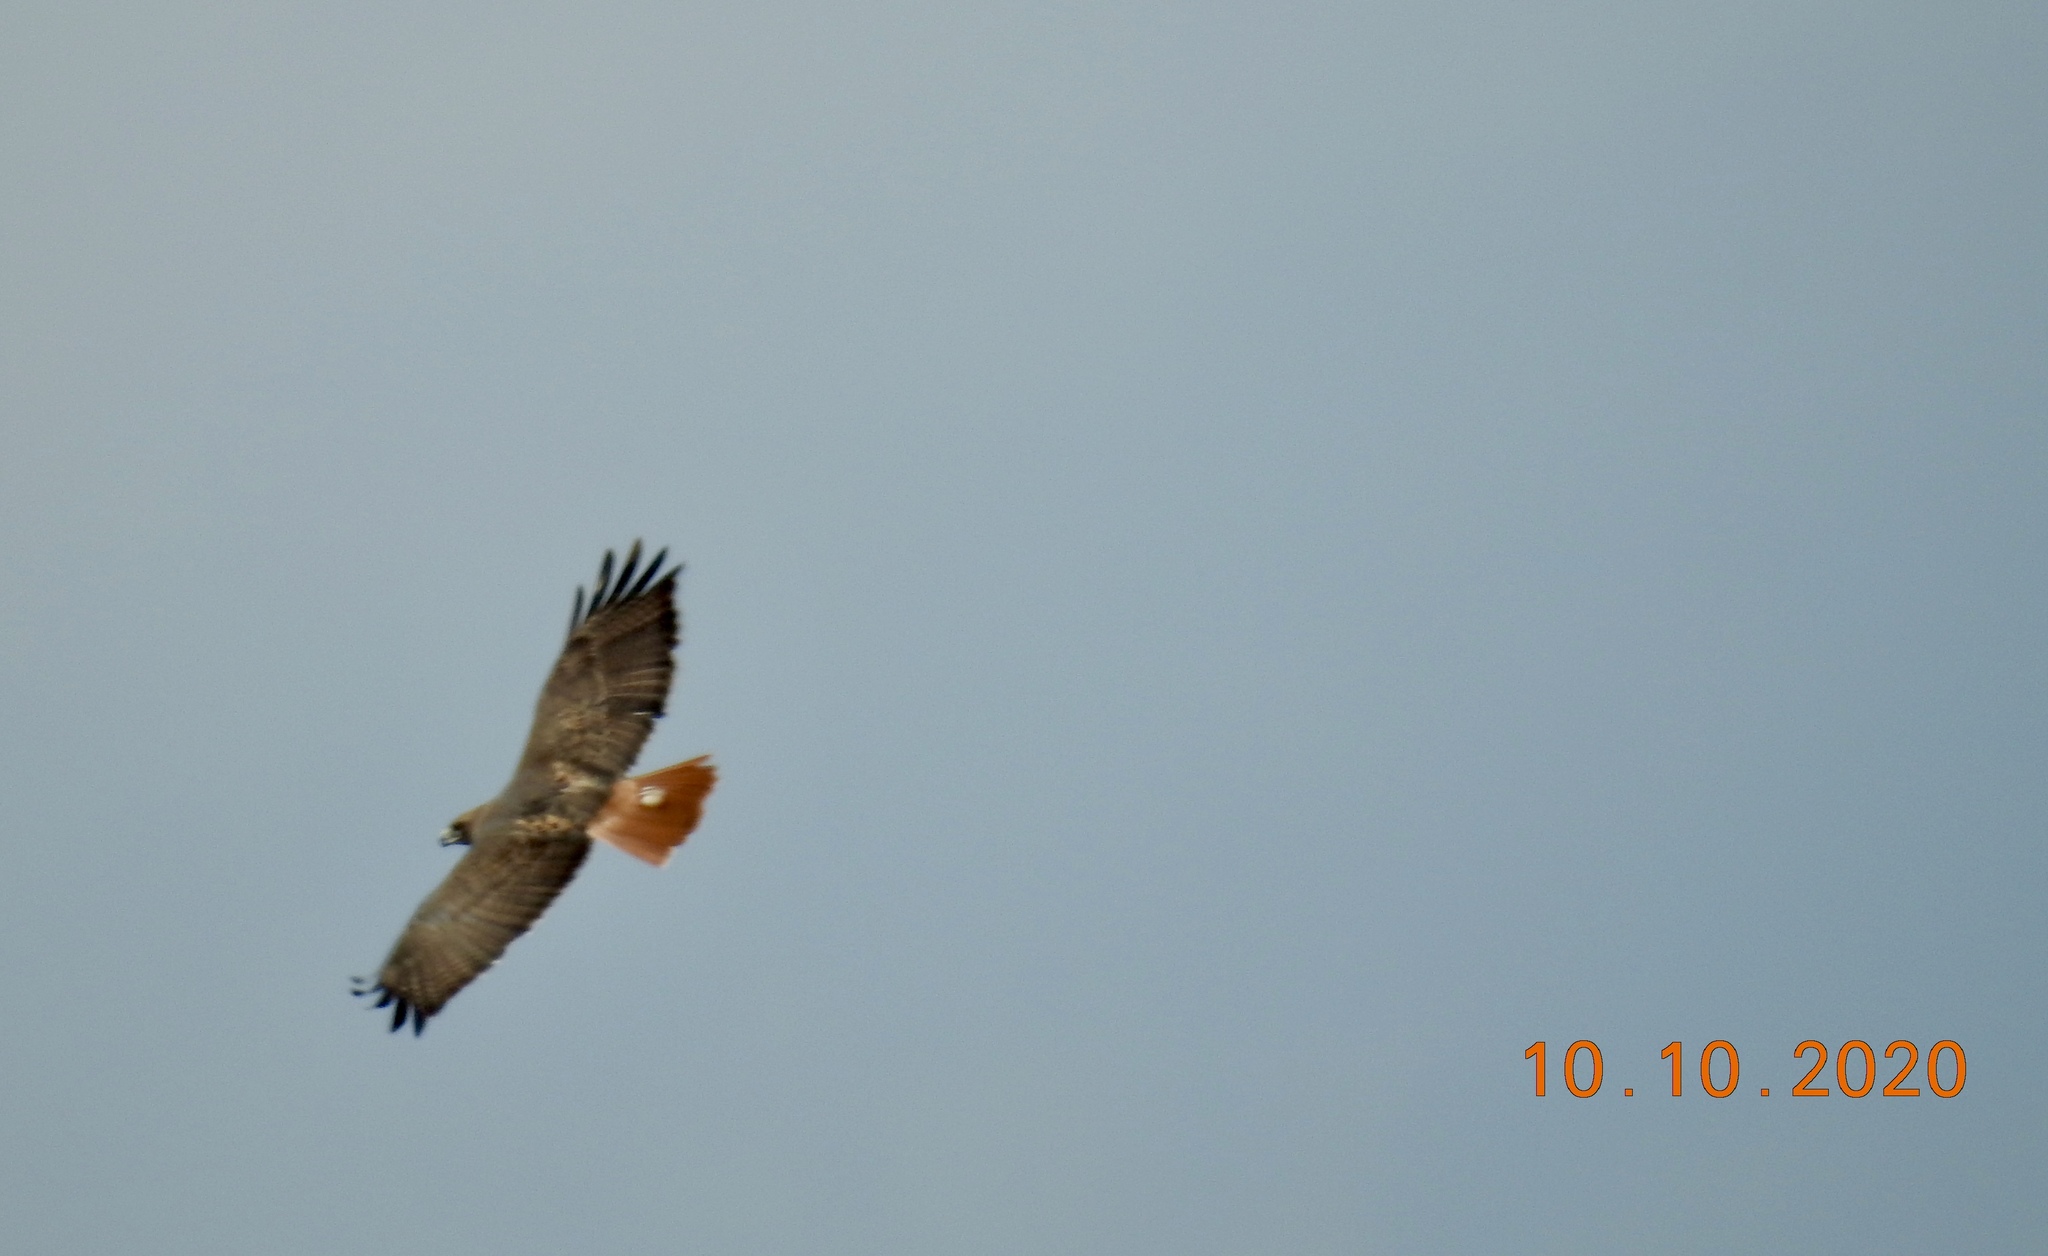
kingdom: Animalia
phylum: Chordata
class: Aves
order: Accipitriformes
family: Accipitridae
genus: Buteo
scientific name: Buteo jamaicensis
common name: Red-tailed hawk
